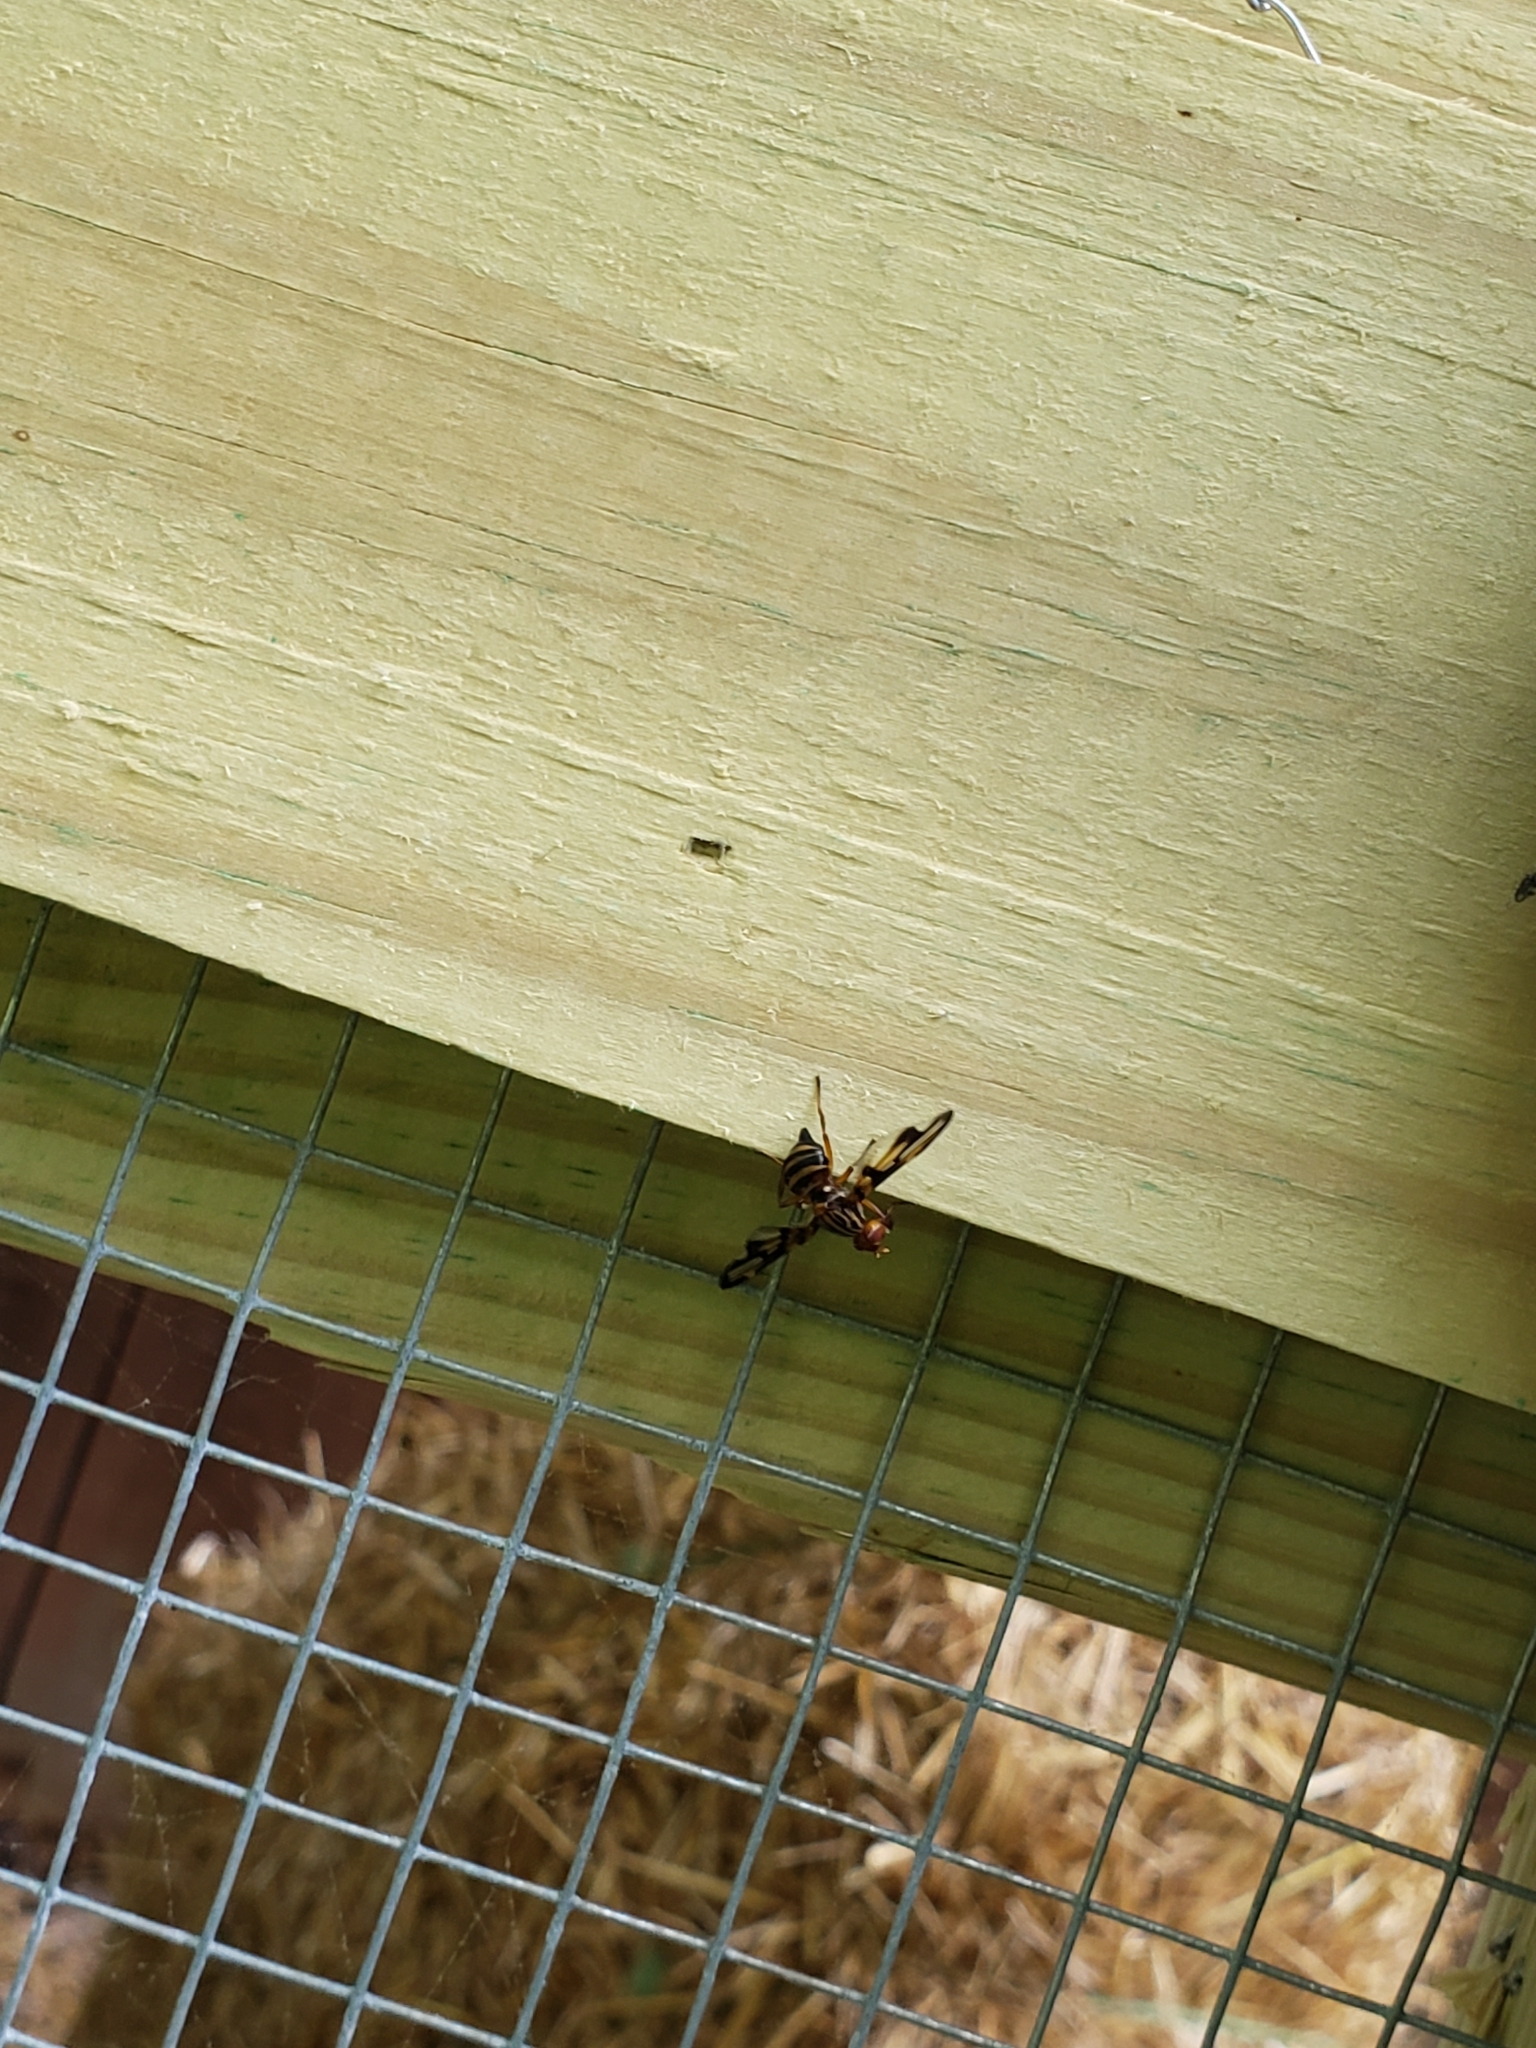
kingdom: Animalia
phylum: Arthropoda
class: Insecta
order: Diptera
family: Ulidiidae
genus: Idana
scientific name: Idana marginata
